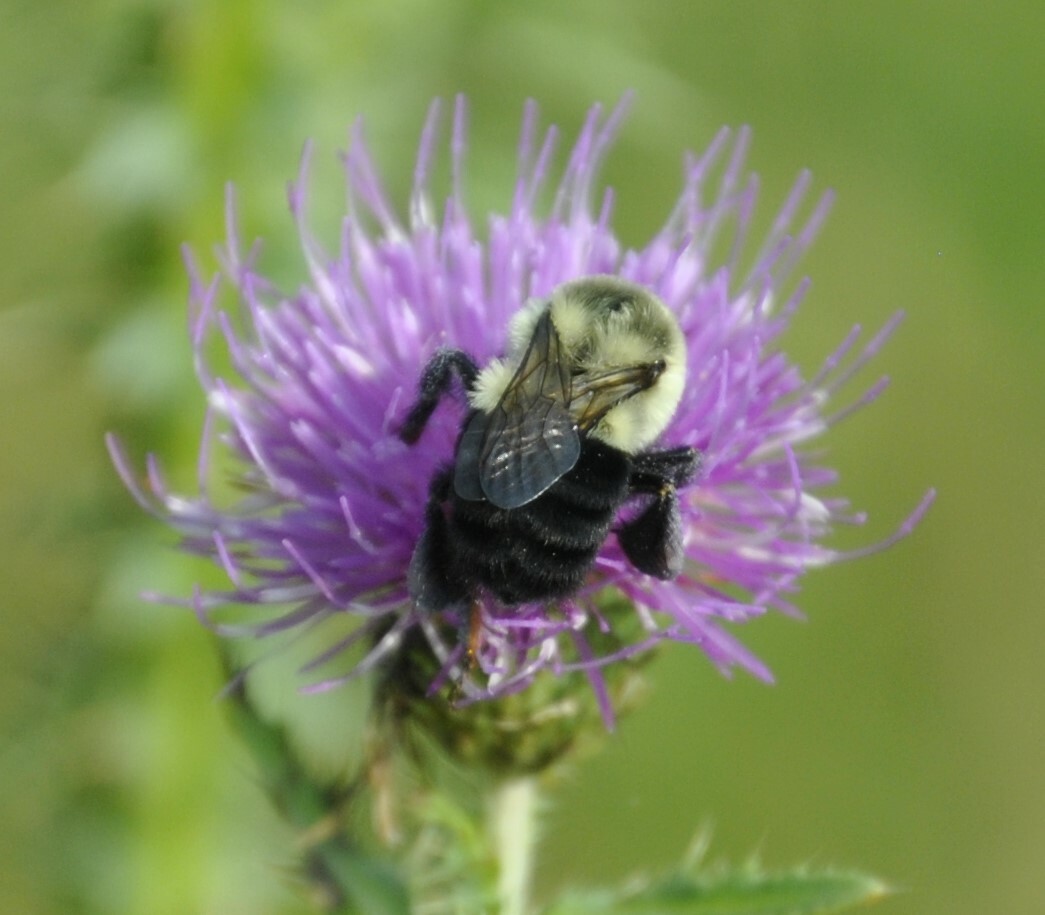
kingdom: Animalia
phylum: Arthropoda
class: Insecta
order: Hymenoptera
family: Apidae
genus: Bombus
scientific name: Bombus impatiens
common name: Common eastern bumble bee
